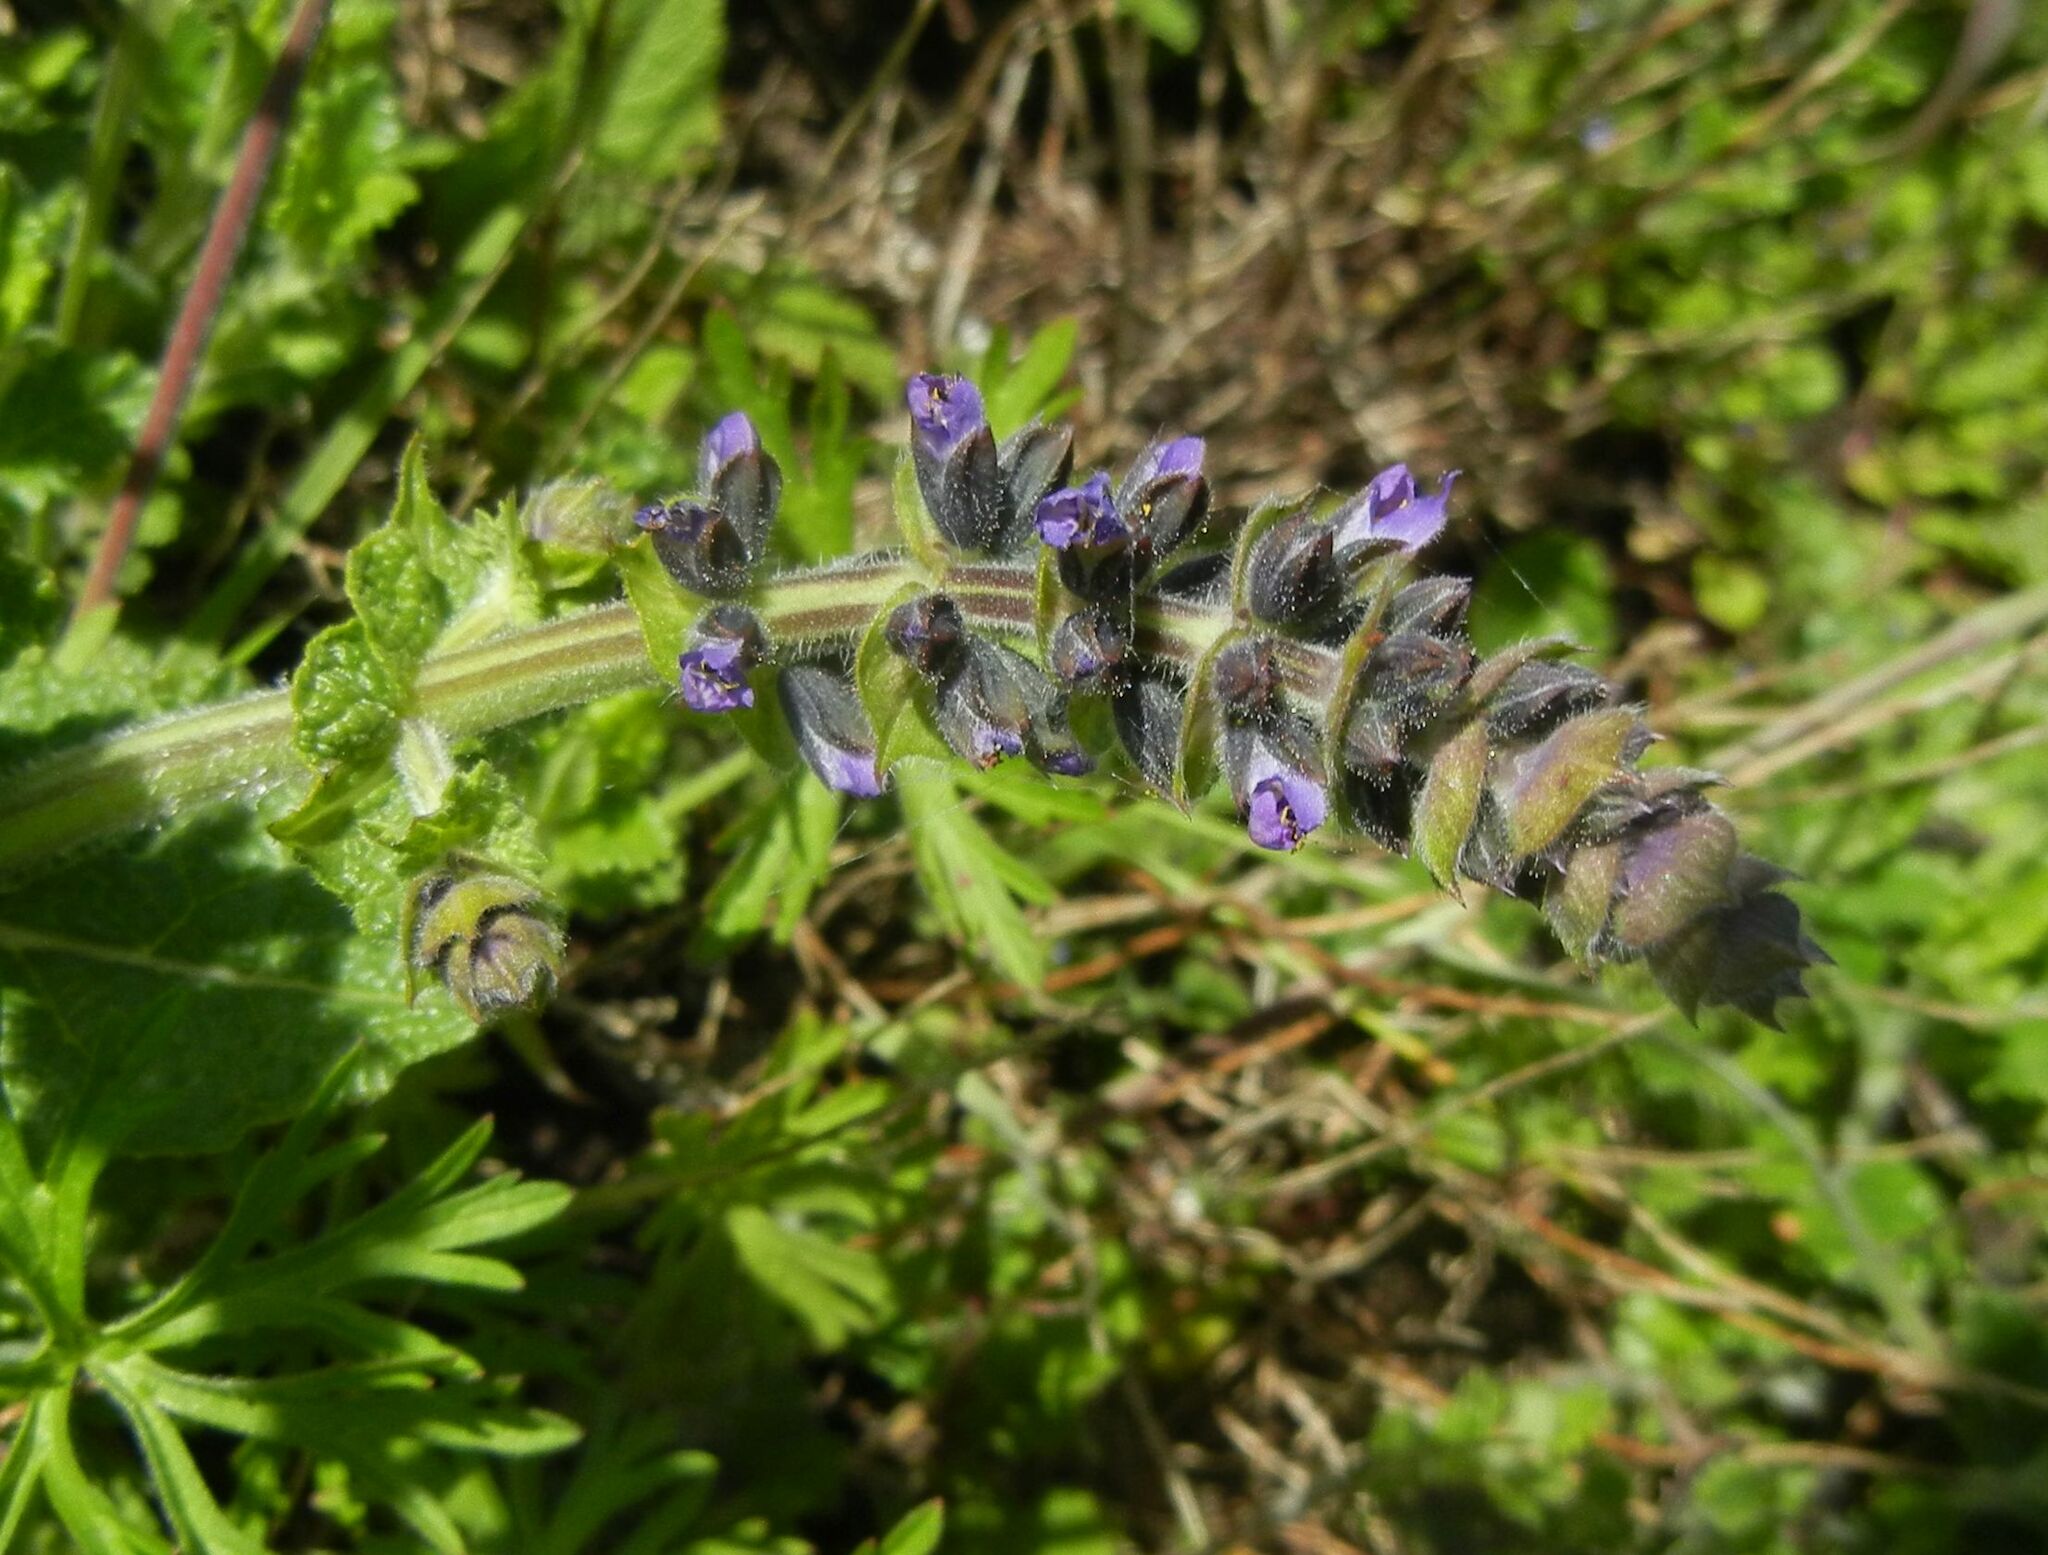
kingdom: Plantae
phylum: Tracheophyta
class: Magnoliopsida
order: Lamiales
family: Lamiaceae
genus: Salvia
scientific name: Salvia verbenaca
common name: Wild clary
